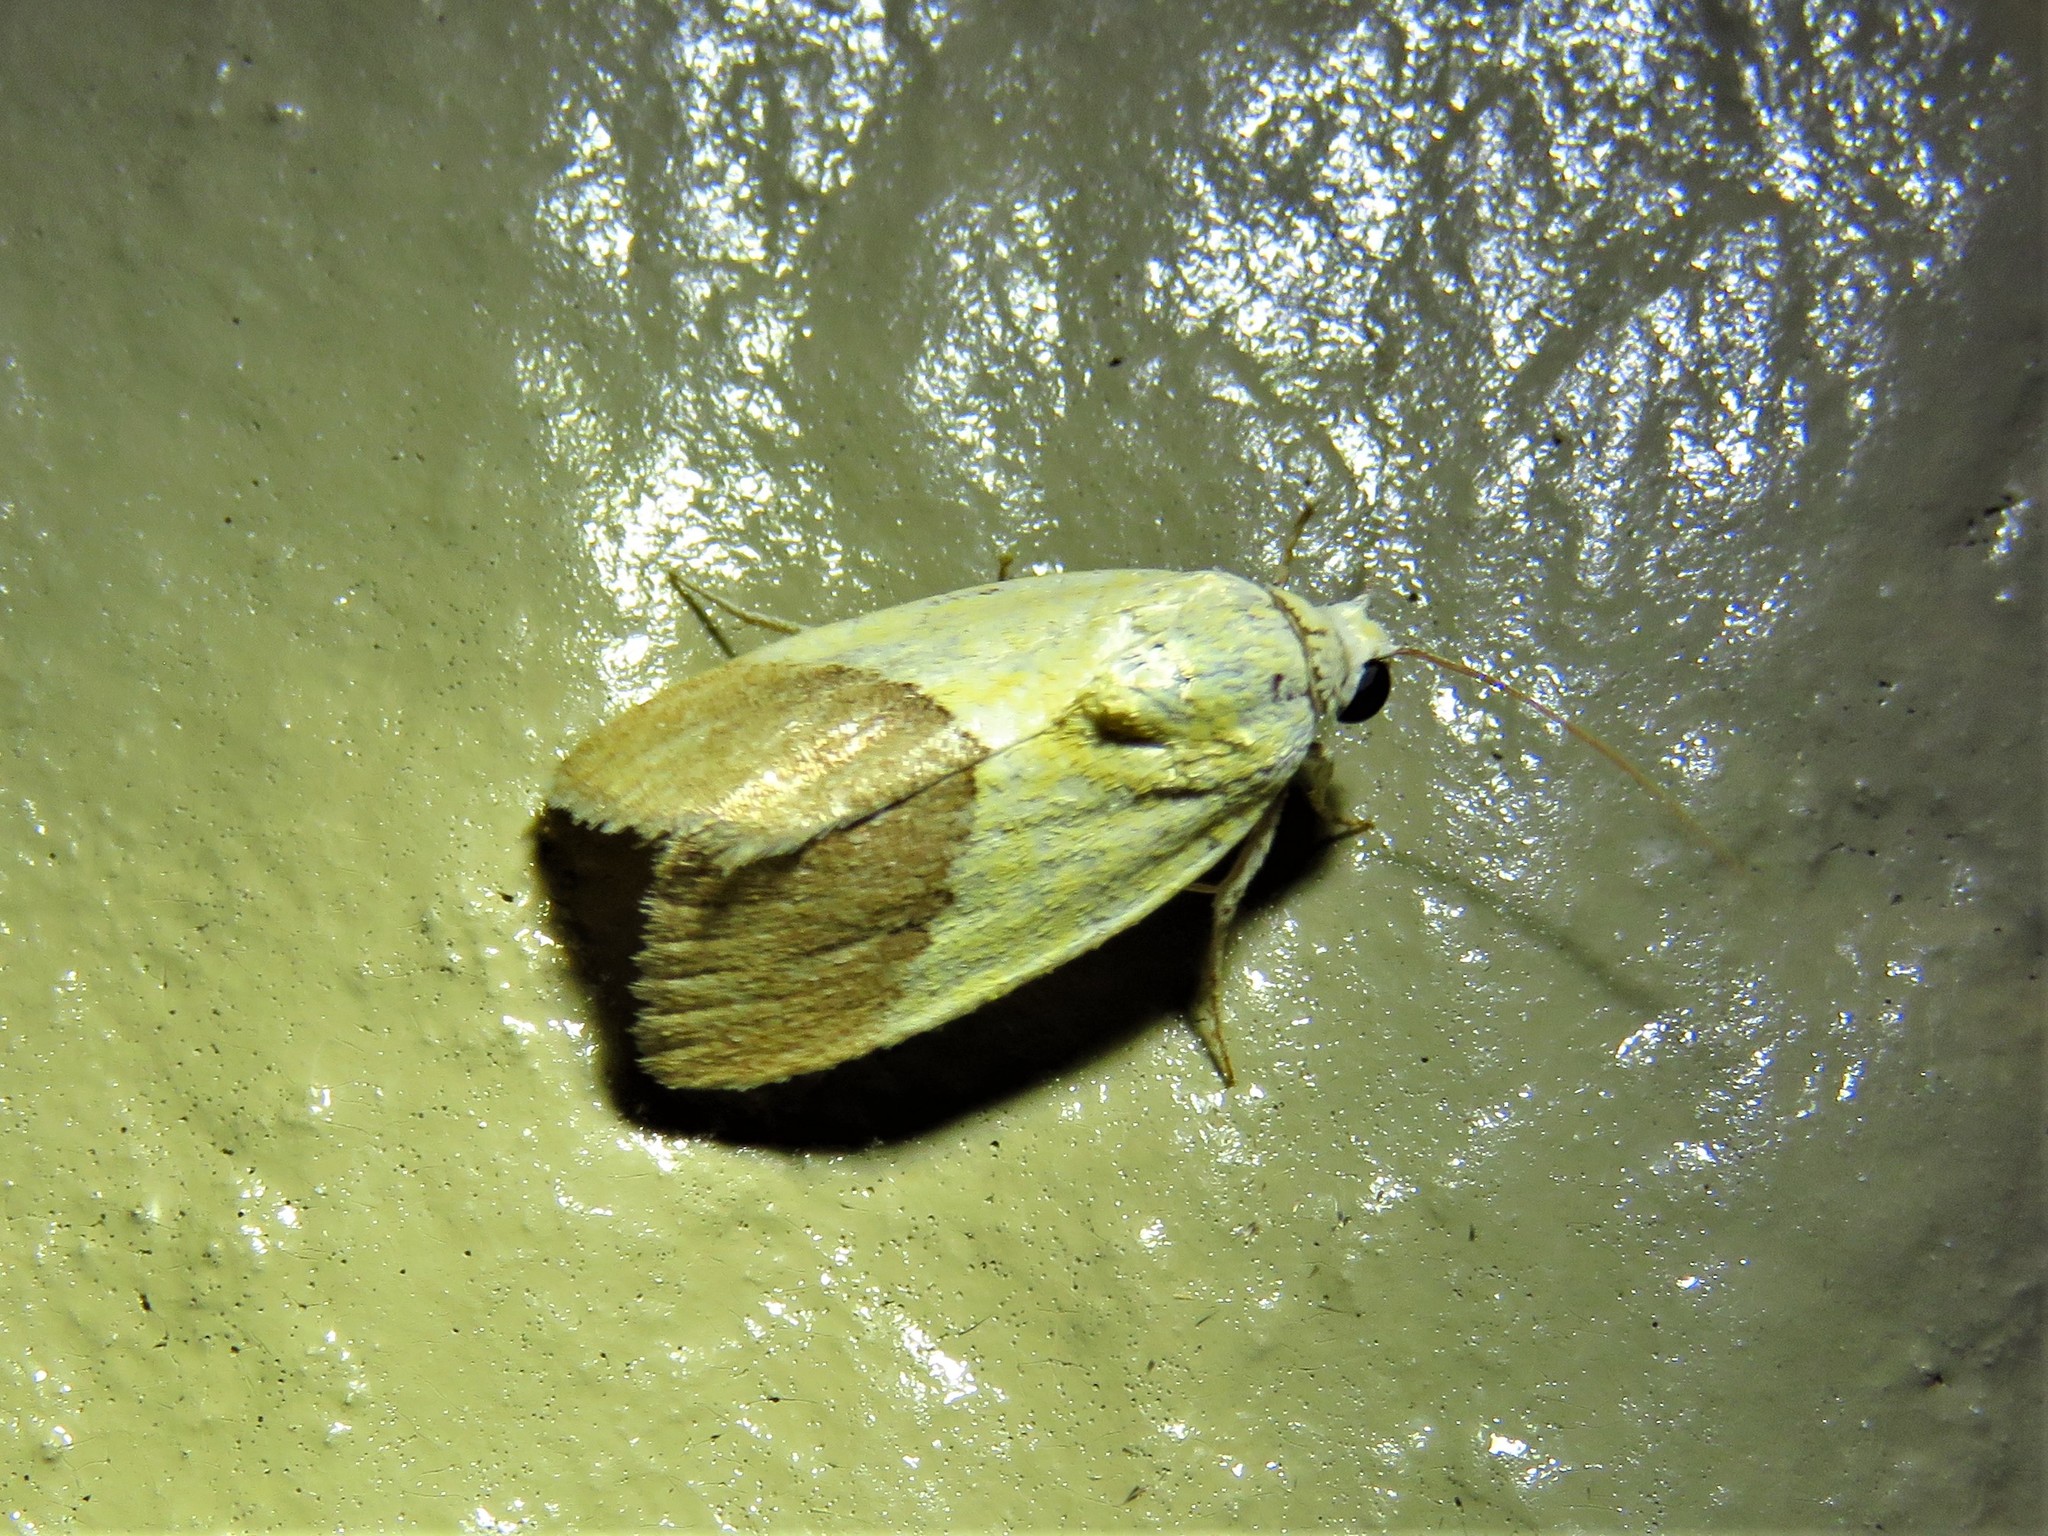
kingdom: Animalia
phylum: Arthropoda
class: Insecta
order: Lepidoptera
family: Noctuidae
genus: Acontia
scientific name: Acontia semiflava
